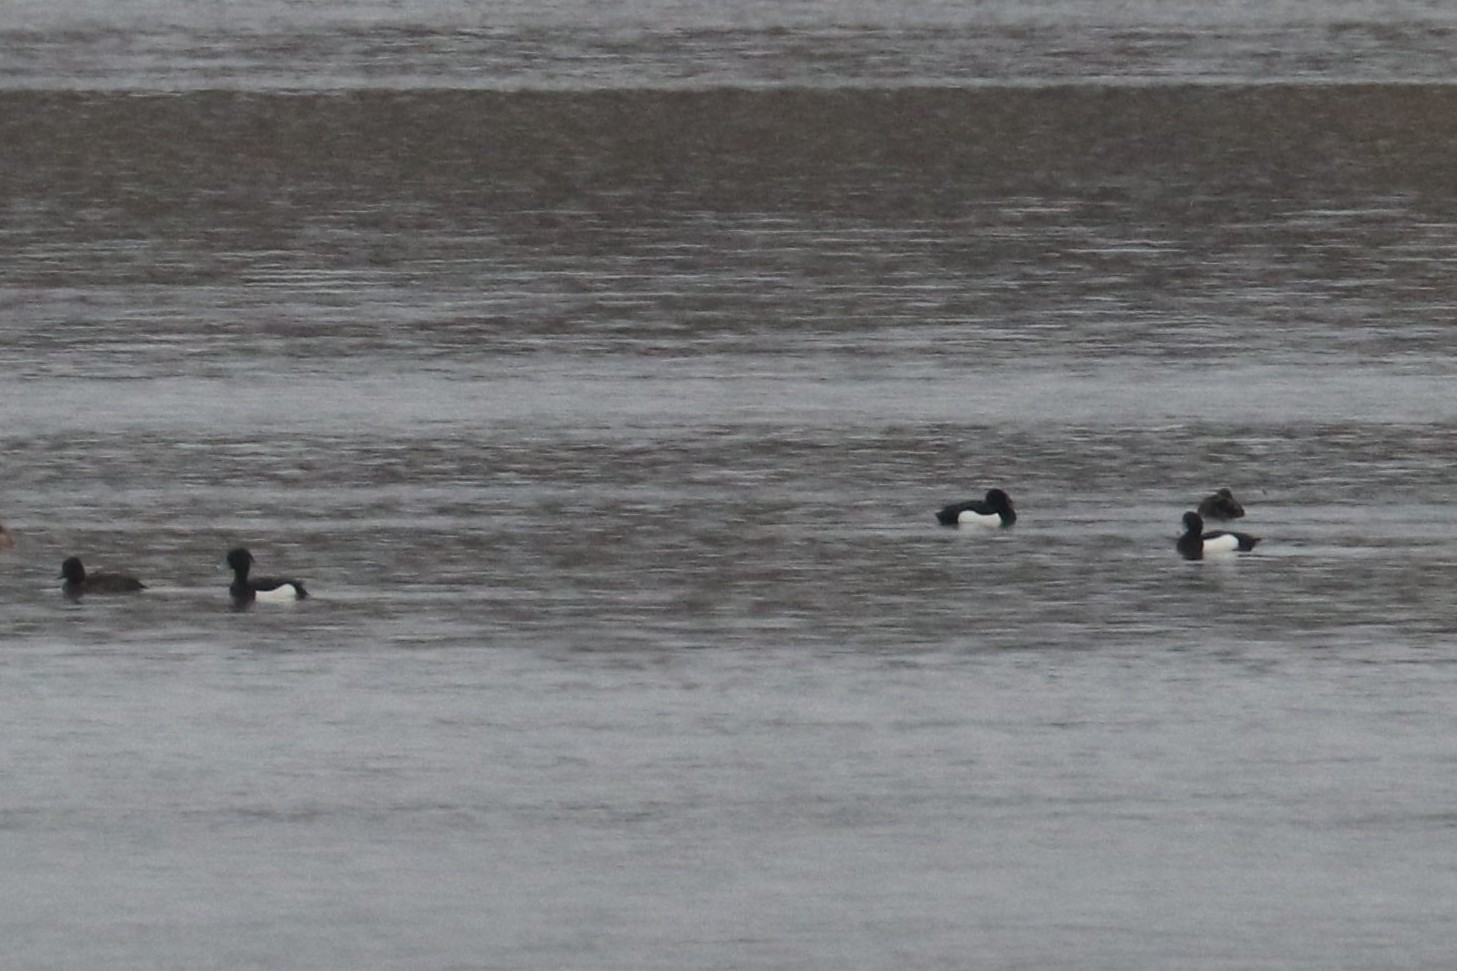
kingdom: Animalia
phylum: Chordata
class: Aves
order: Anseriformes
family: Anatidae
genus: Aythya
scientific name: Aythya fuligula
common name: Tufted duck
